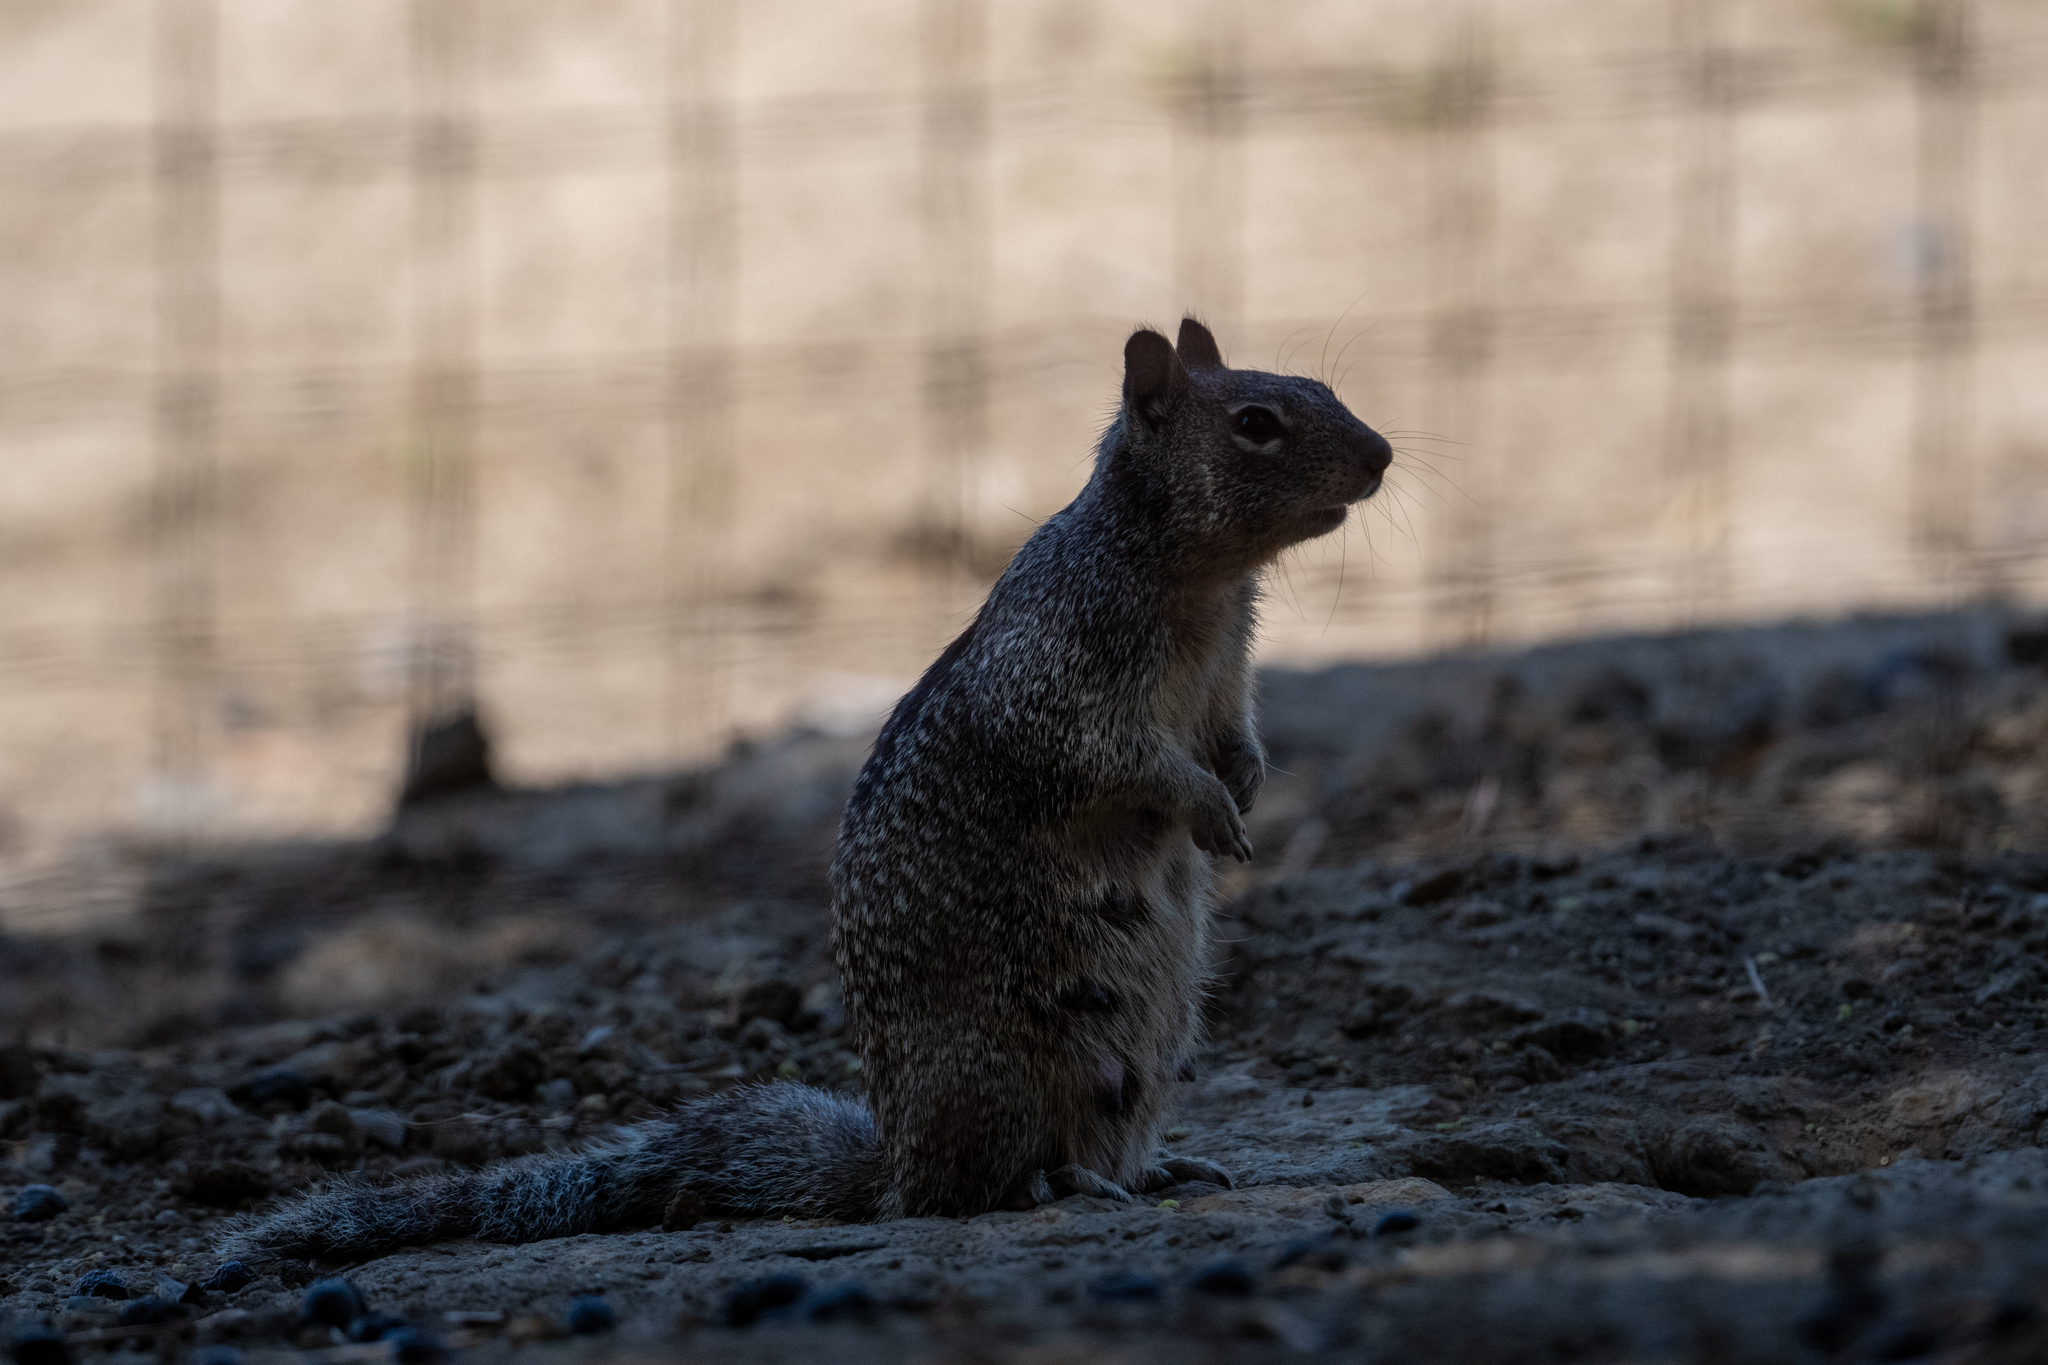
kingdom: Animalia
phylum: Chordata
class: Mammalia
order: Rodentia
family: Sciuridae
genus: Otospermophilus
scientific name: Otospermophilus beecheyi
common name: California ground squirrel
